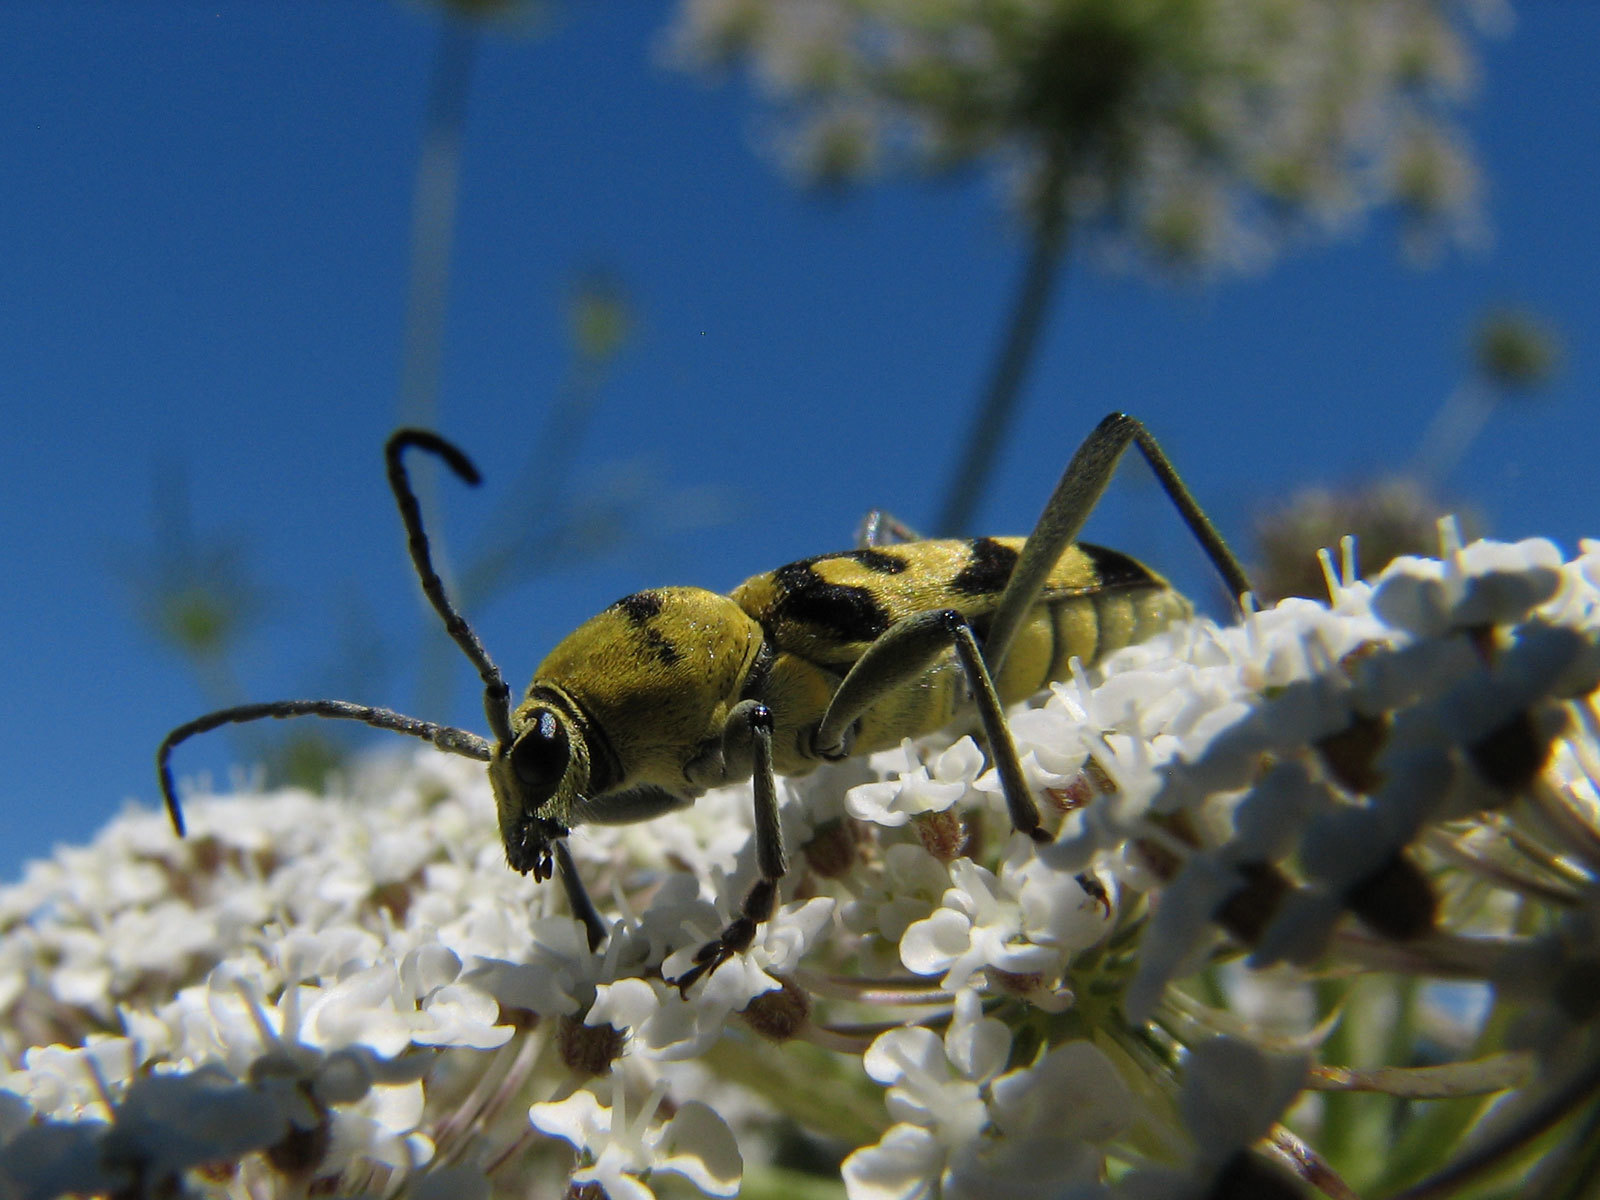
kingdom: Animalia
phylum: Arthropoda
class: Insecta
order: Coleoptera
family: Cerambycidae
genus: Chlorophorus
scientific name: Chlorophorus varius
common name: Grape wood borer
